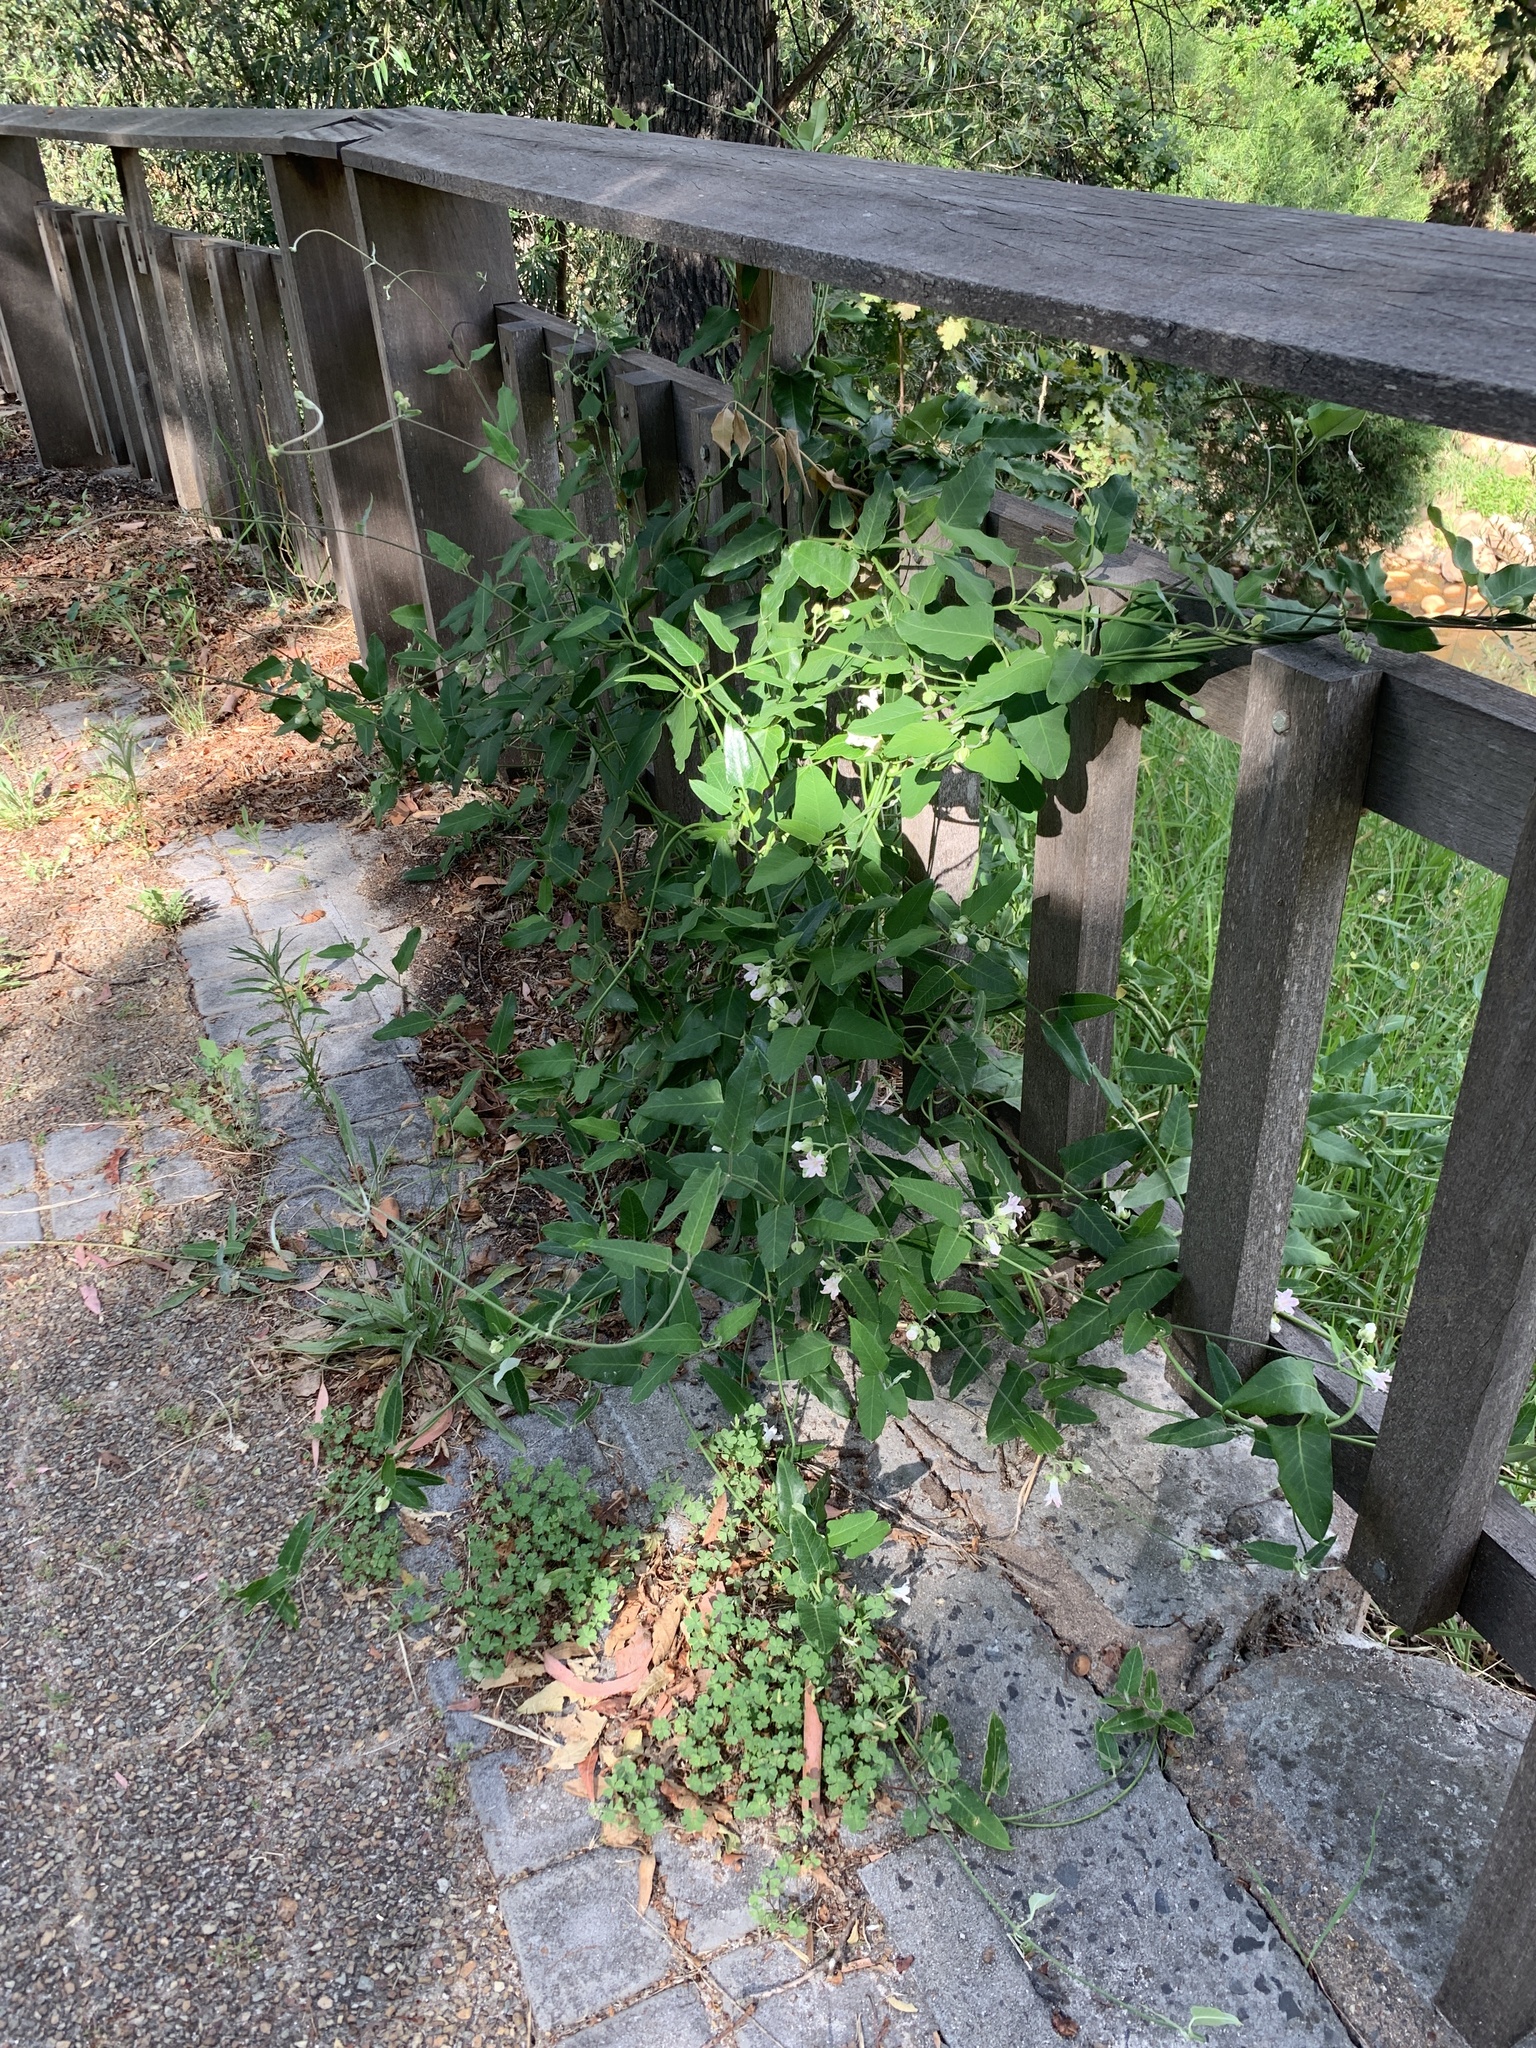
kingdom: Plantae
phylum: Tracheophyta
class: Magnoliopsida
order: Gentianales
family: Apocynaceae
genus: Araujia
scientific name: Araujia sericifera
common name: White bladderflower
